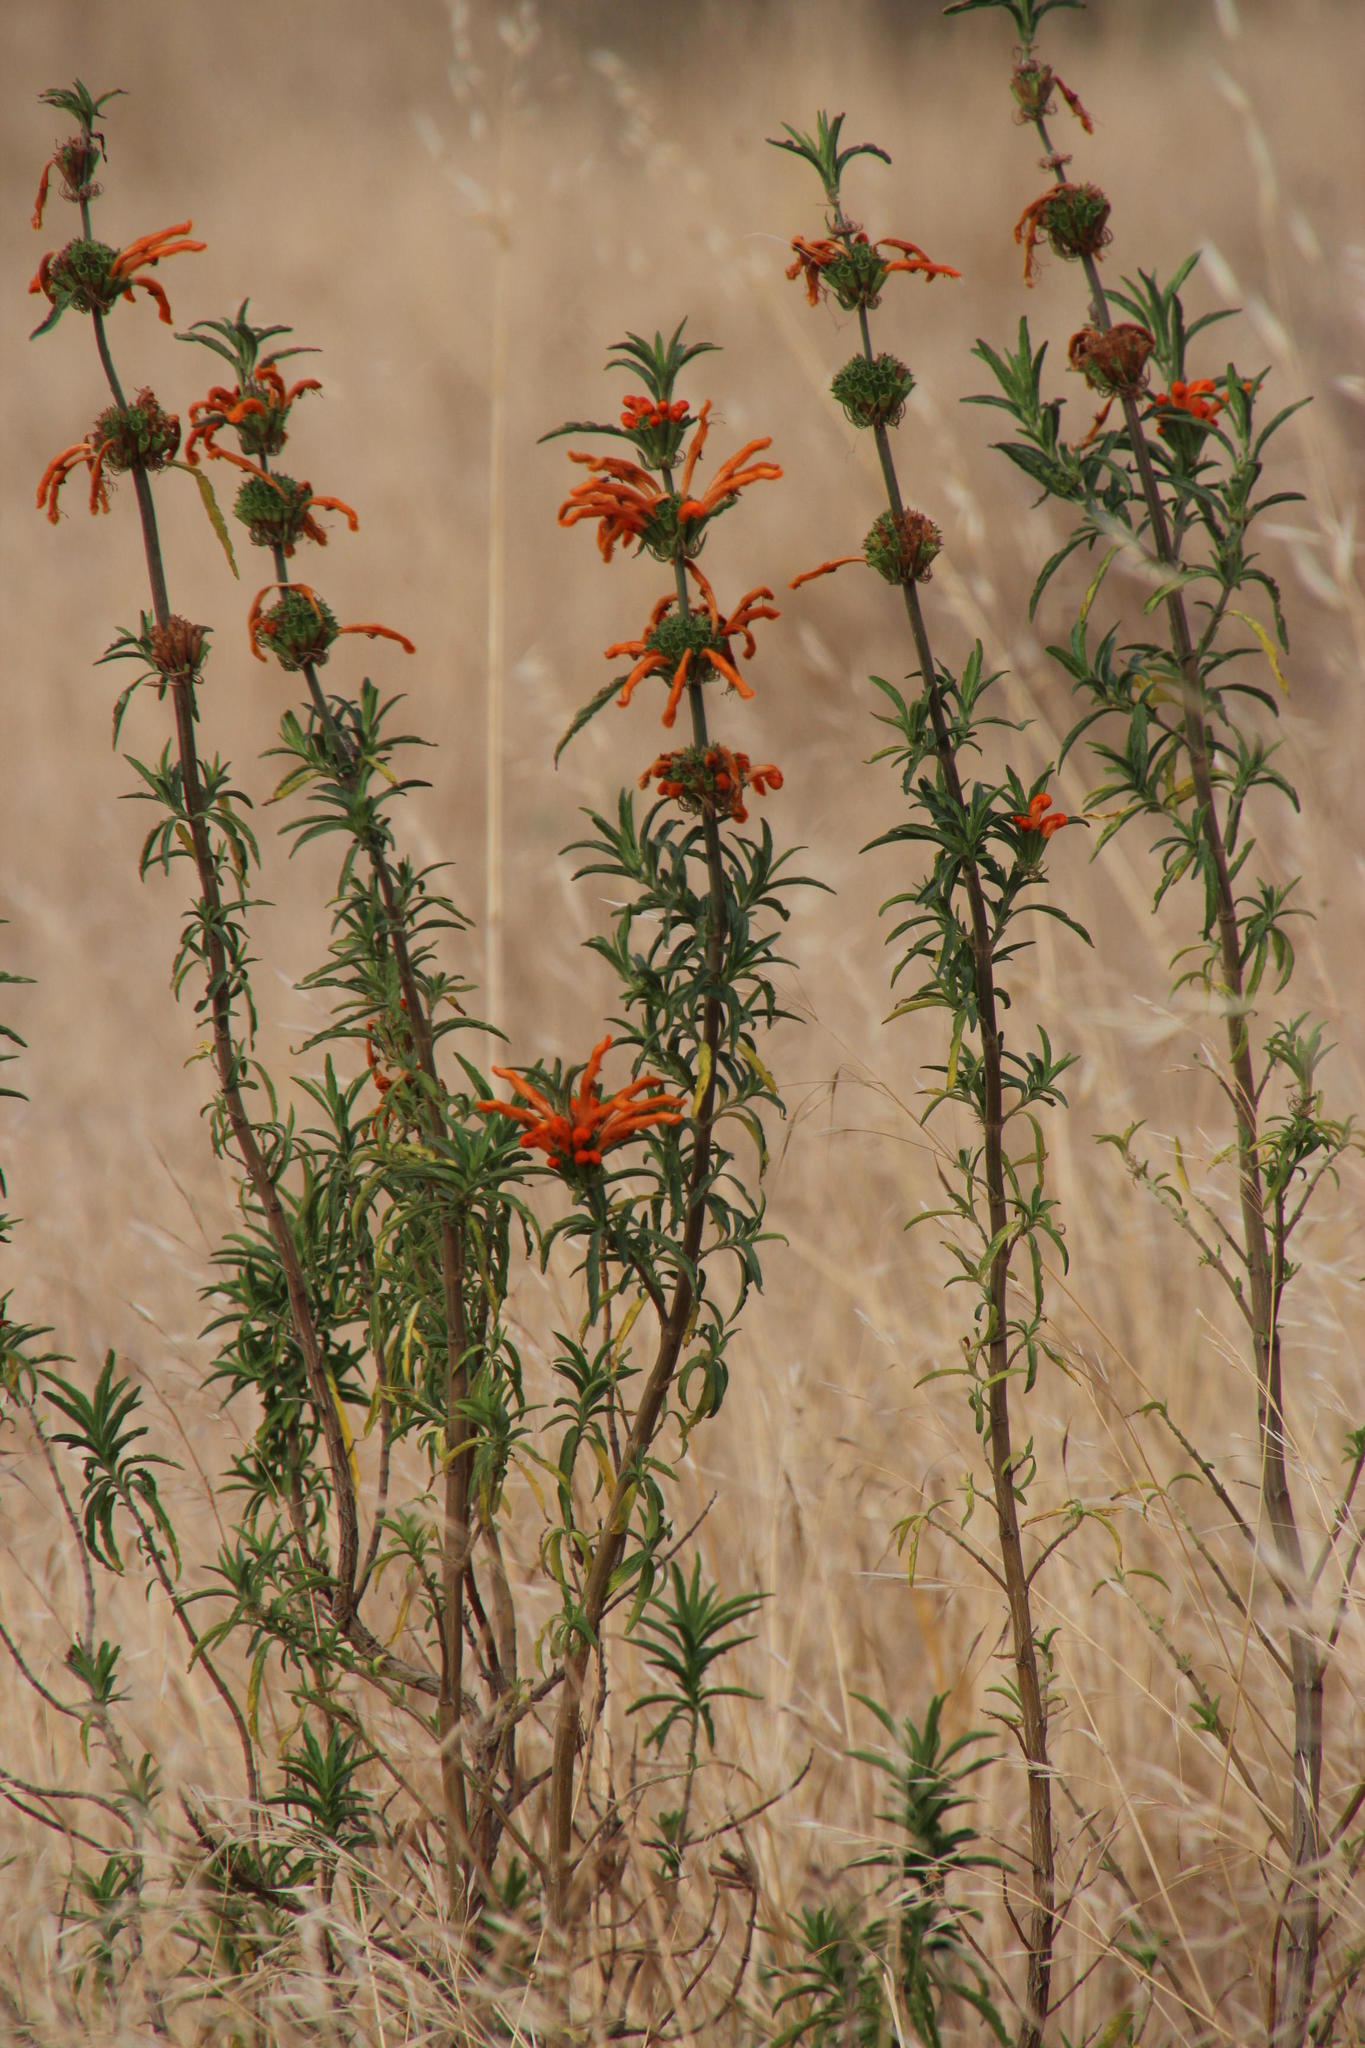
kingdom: Plantae
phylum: Tracheophyta
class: Magnoliopsida
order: Lamiales
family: Lamiaceae
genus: Leonotis
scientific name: Leonotis leonurus
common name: Lion's ear
